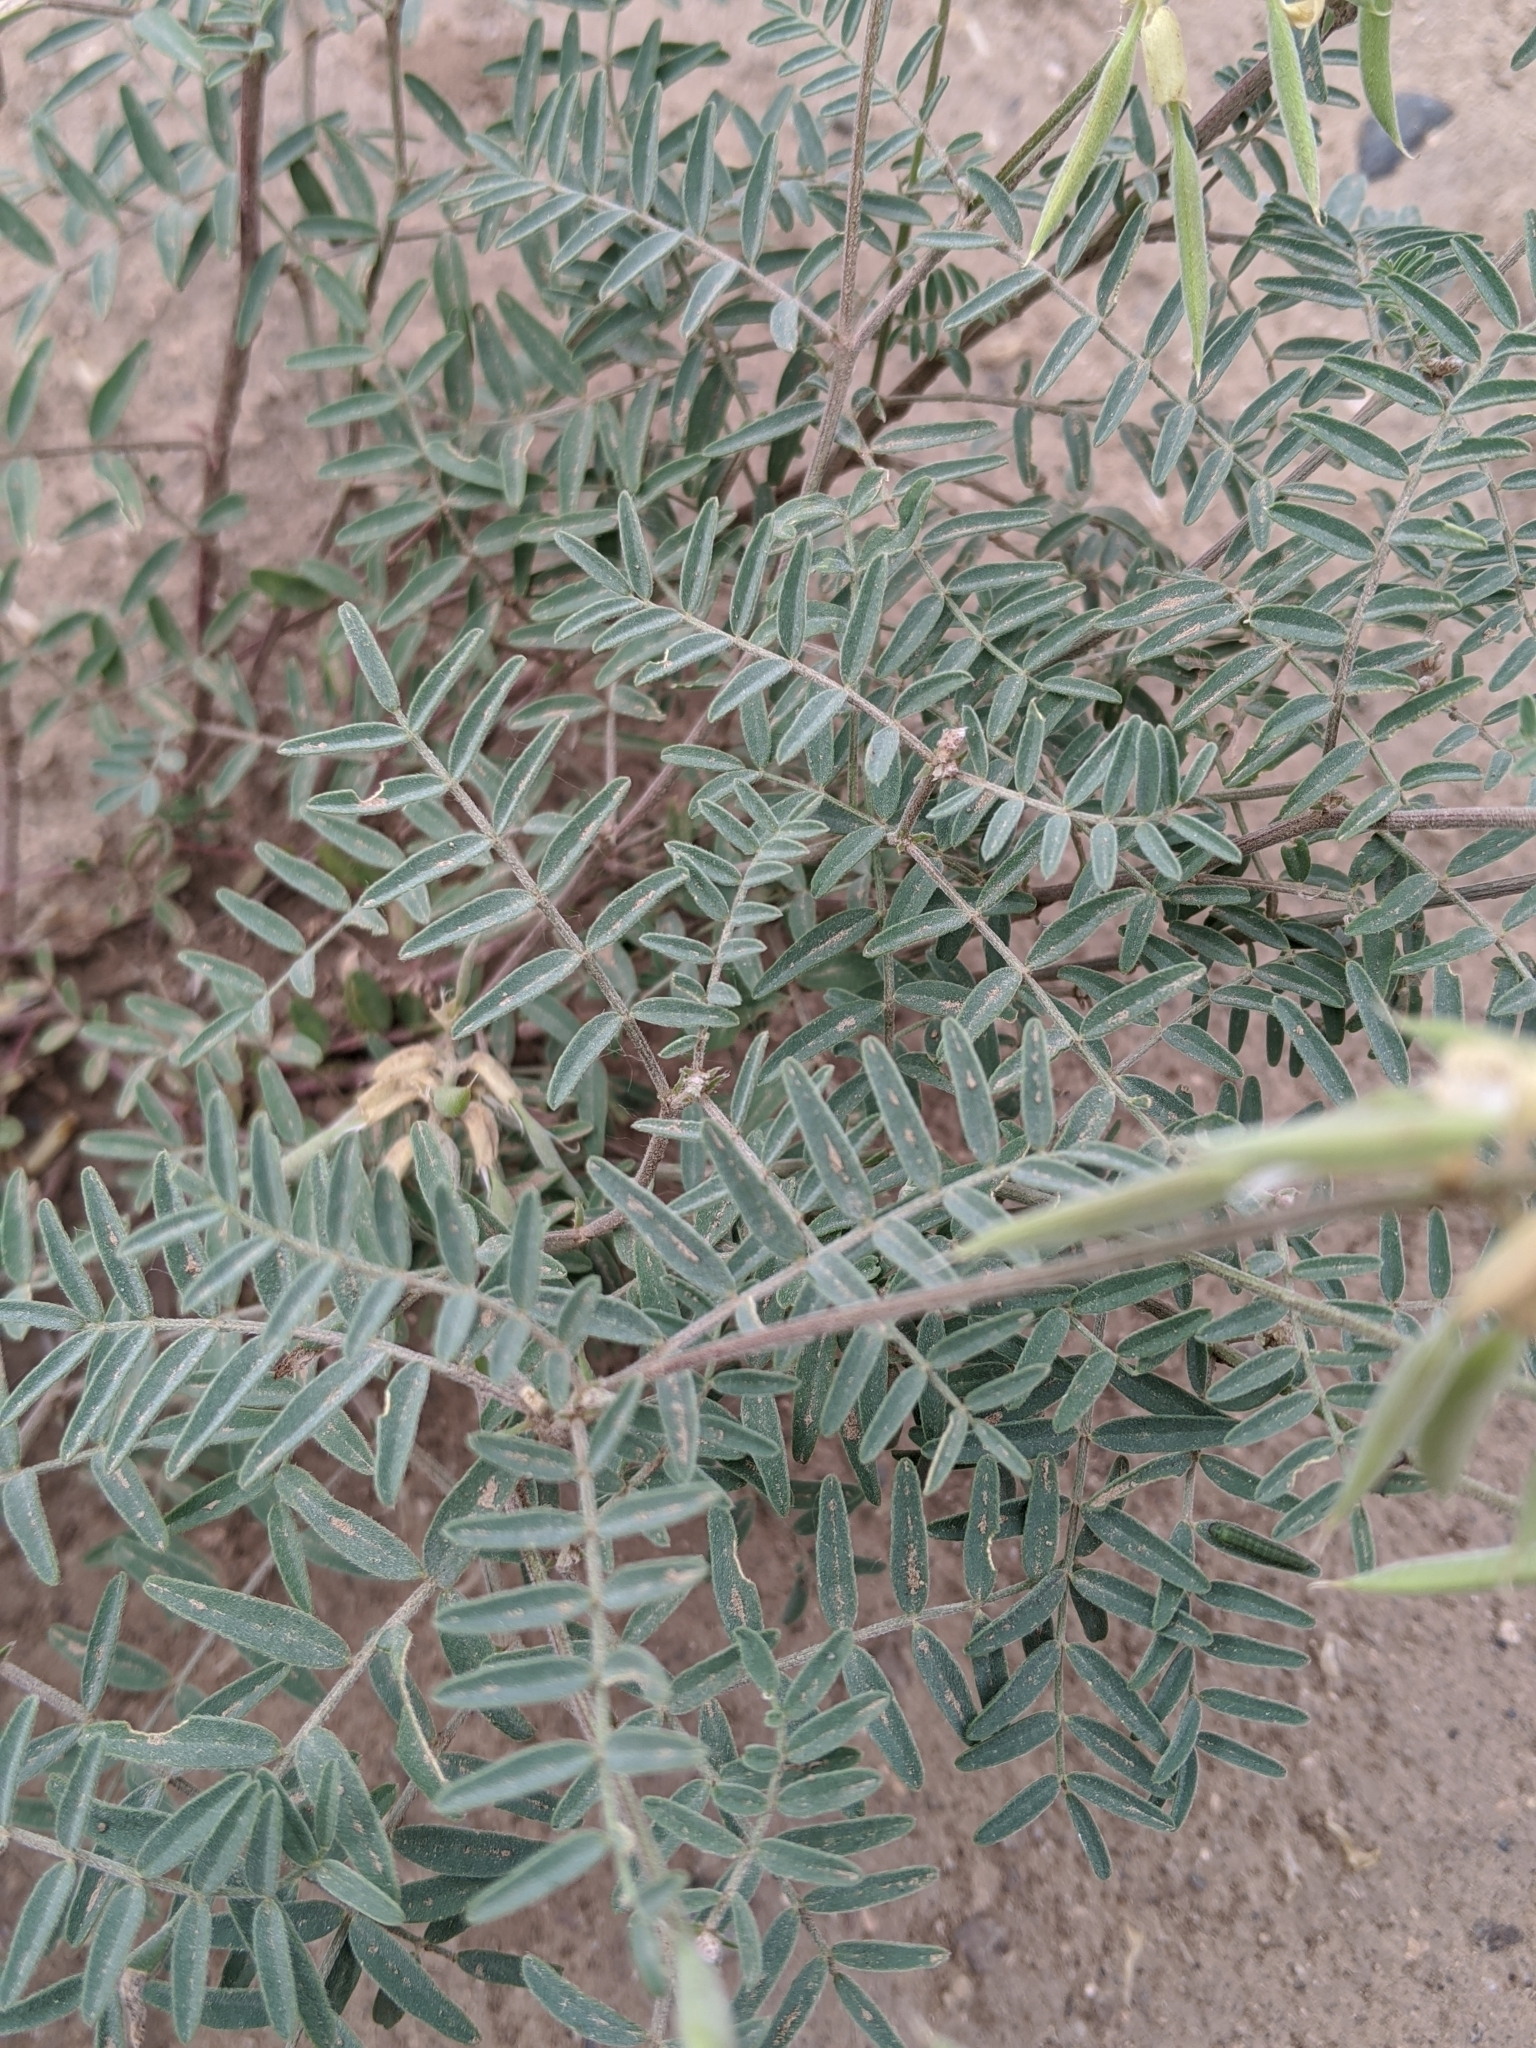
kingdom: Plantae
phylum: Tracheophyta
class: Magnoliopsida
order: Fabales
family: Fabaceae
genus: Astragalus
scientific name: Astragalus collinus
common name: Hill milk-vetch
